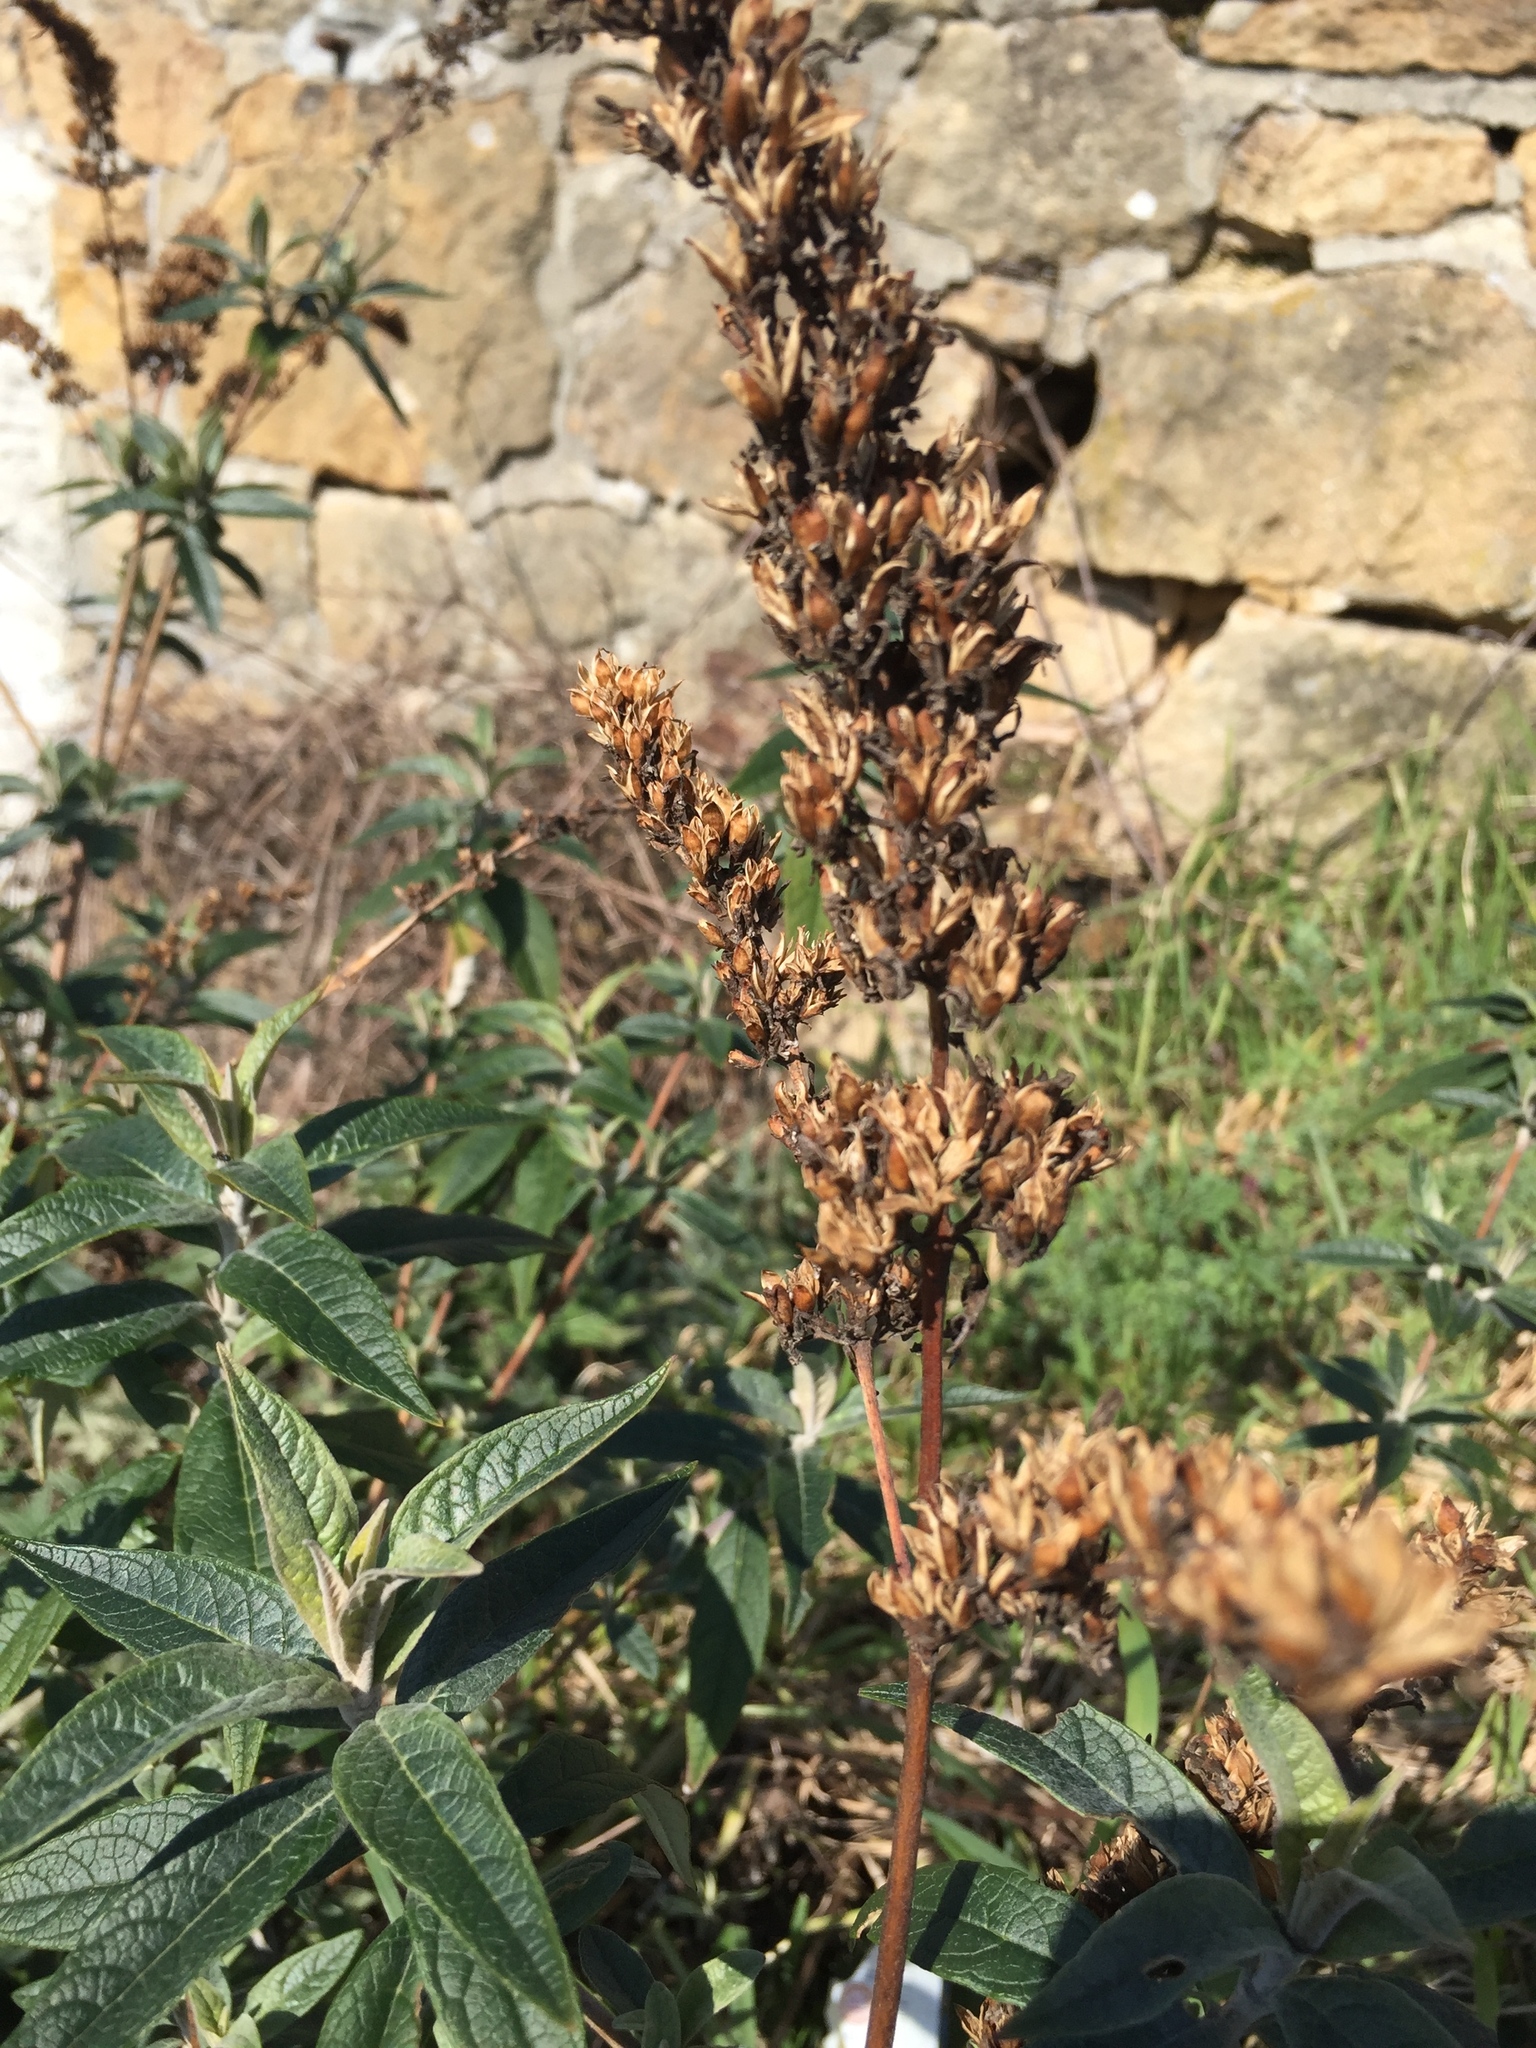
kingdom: Plantae
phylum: Tracheophyta
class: Magnoliopsida
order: Lamiales
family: Scrophulariaceae
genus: Buddleja
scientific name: Buddleja davidii
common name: Butterfly-bush
